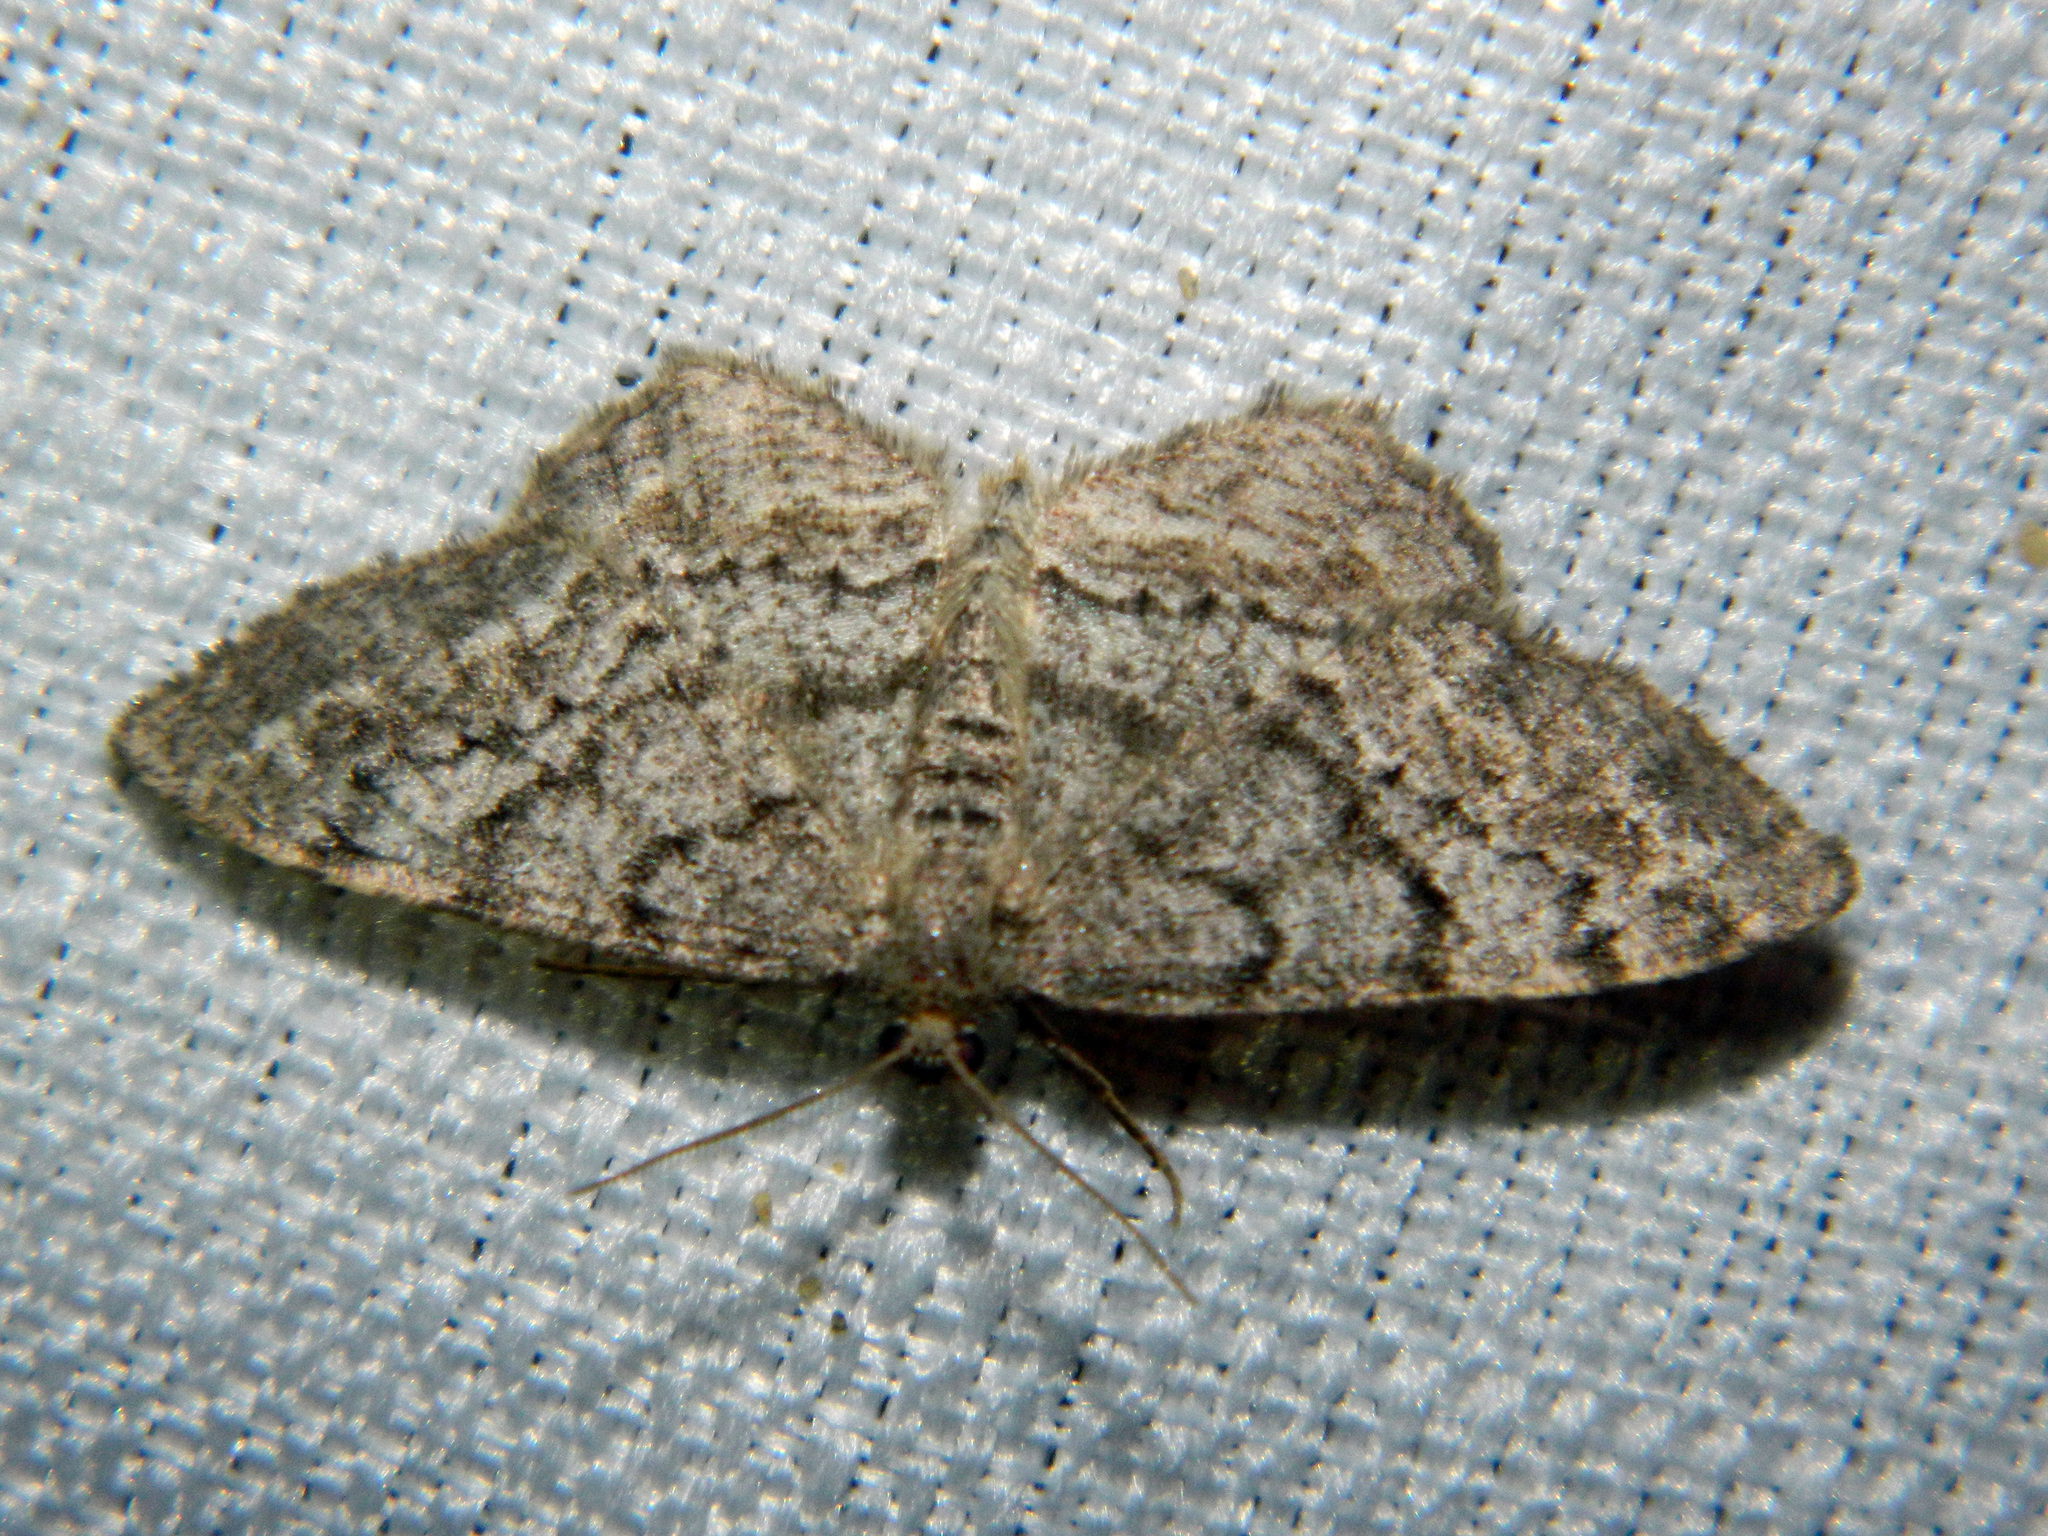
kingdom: Animalia
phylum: Arthropoda
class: Insecta
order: Lepidoptera
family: Geometridae
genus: Hypagyrtis
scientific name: Hypagyrtis piniata
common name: Pine measuringworm
